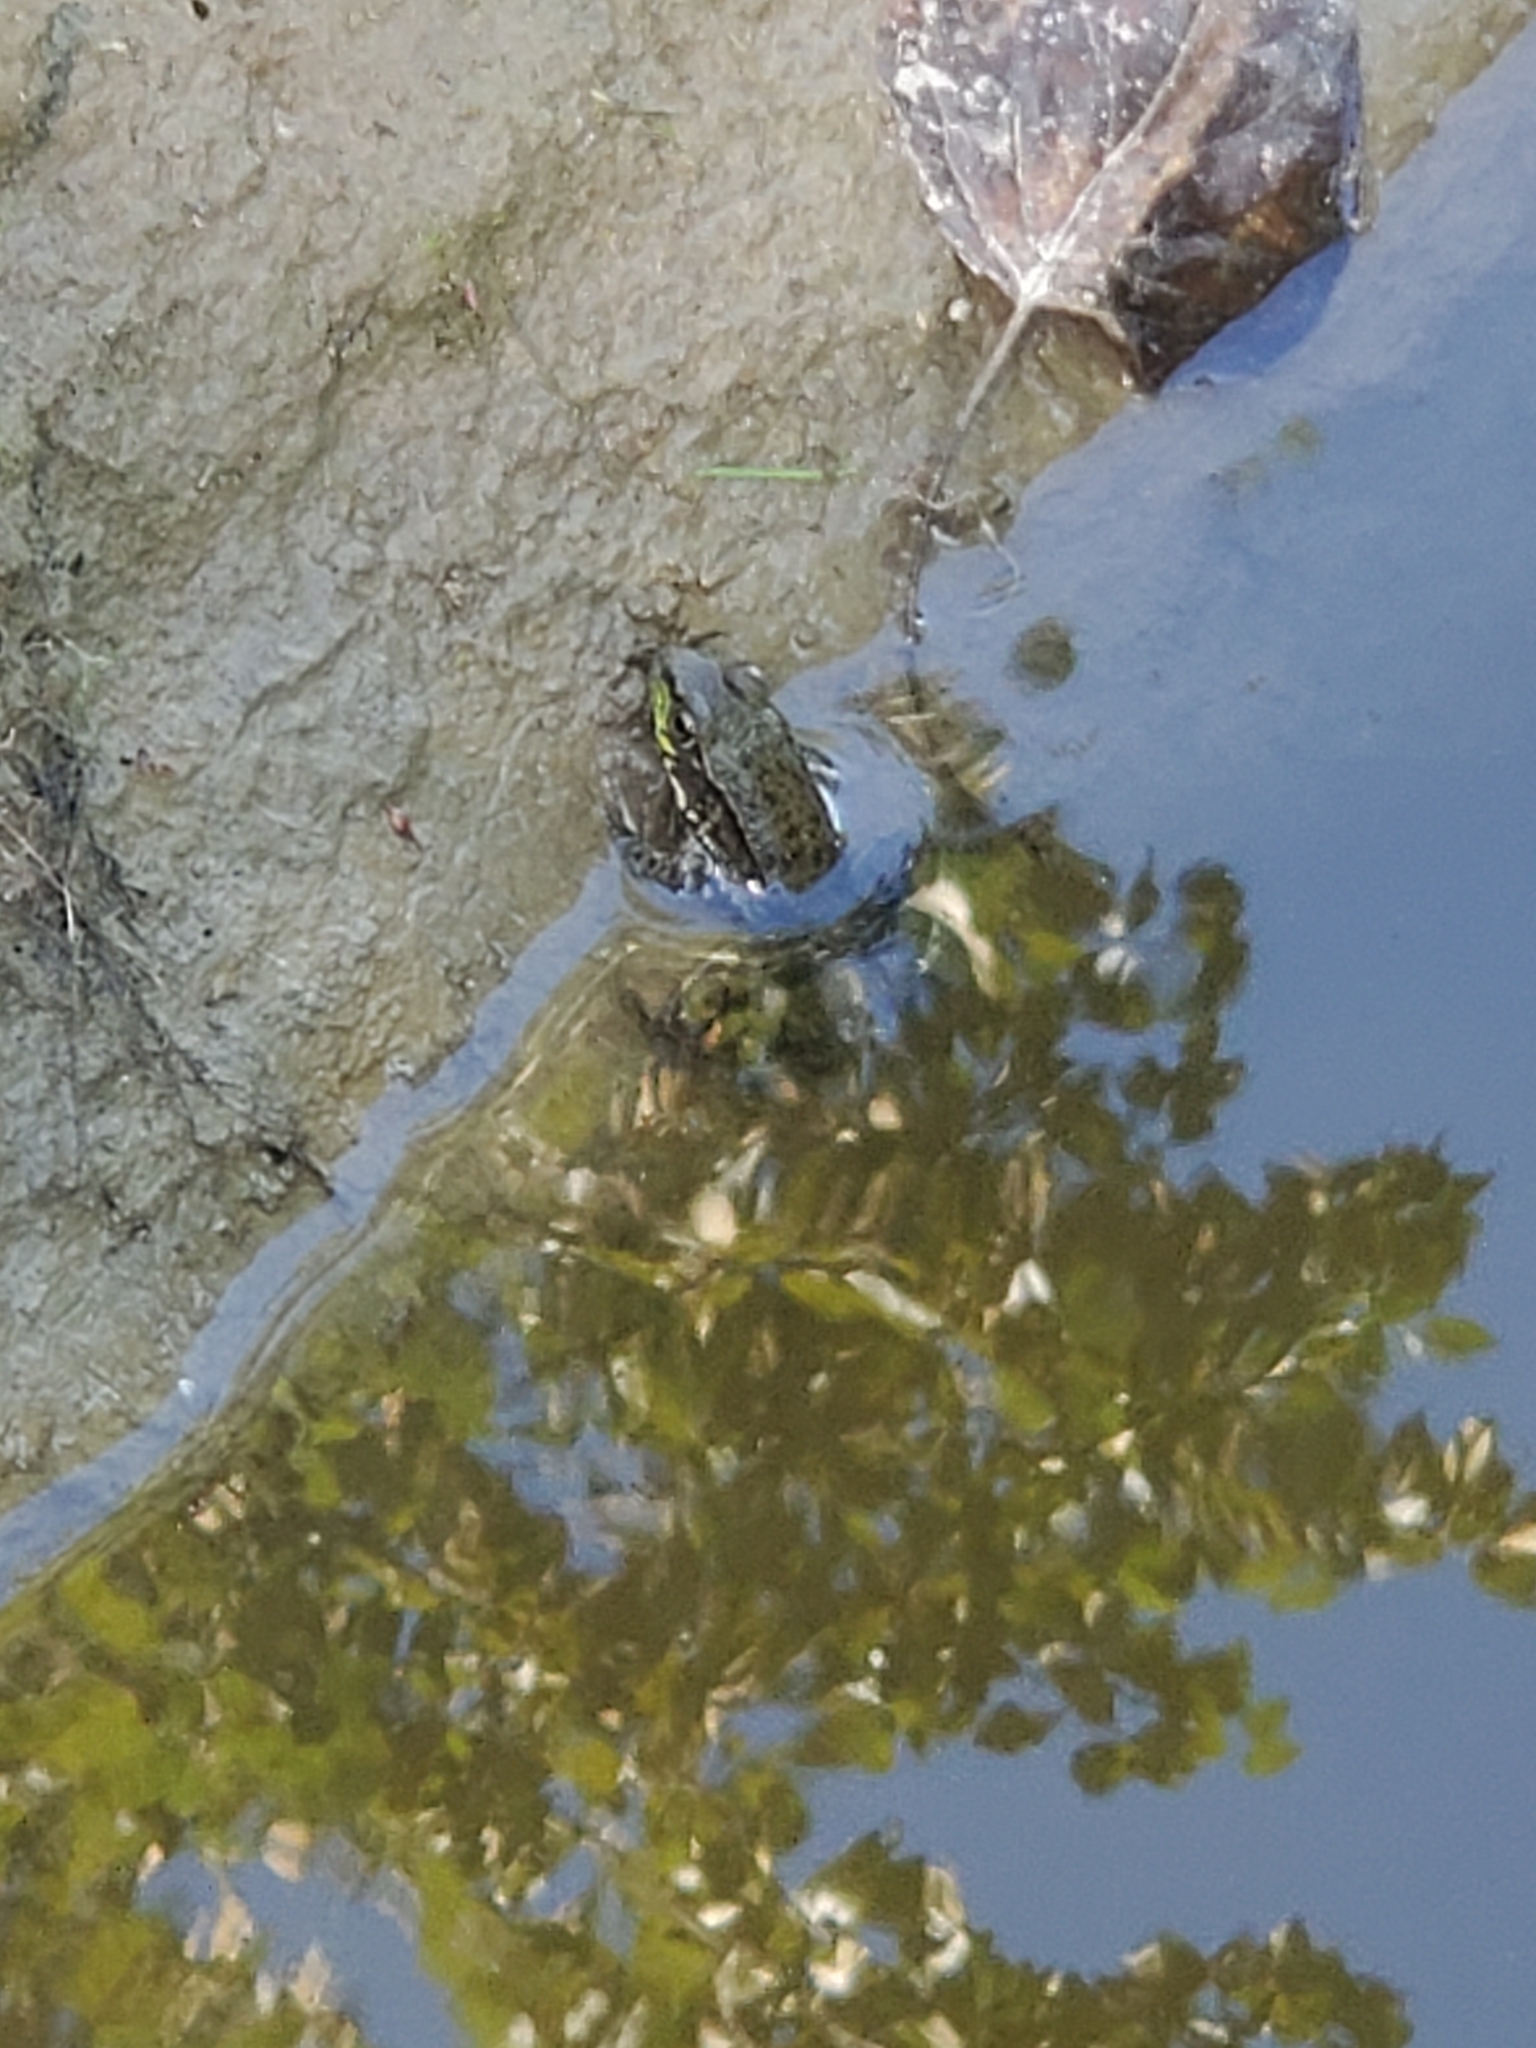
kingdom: Animalia
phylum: Chordata
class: Amphibia
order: Anura
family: Ranidae
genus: Lithobates
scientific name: Lithobates clamitans
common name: Green frog
